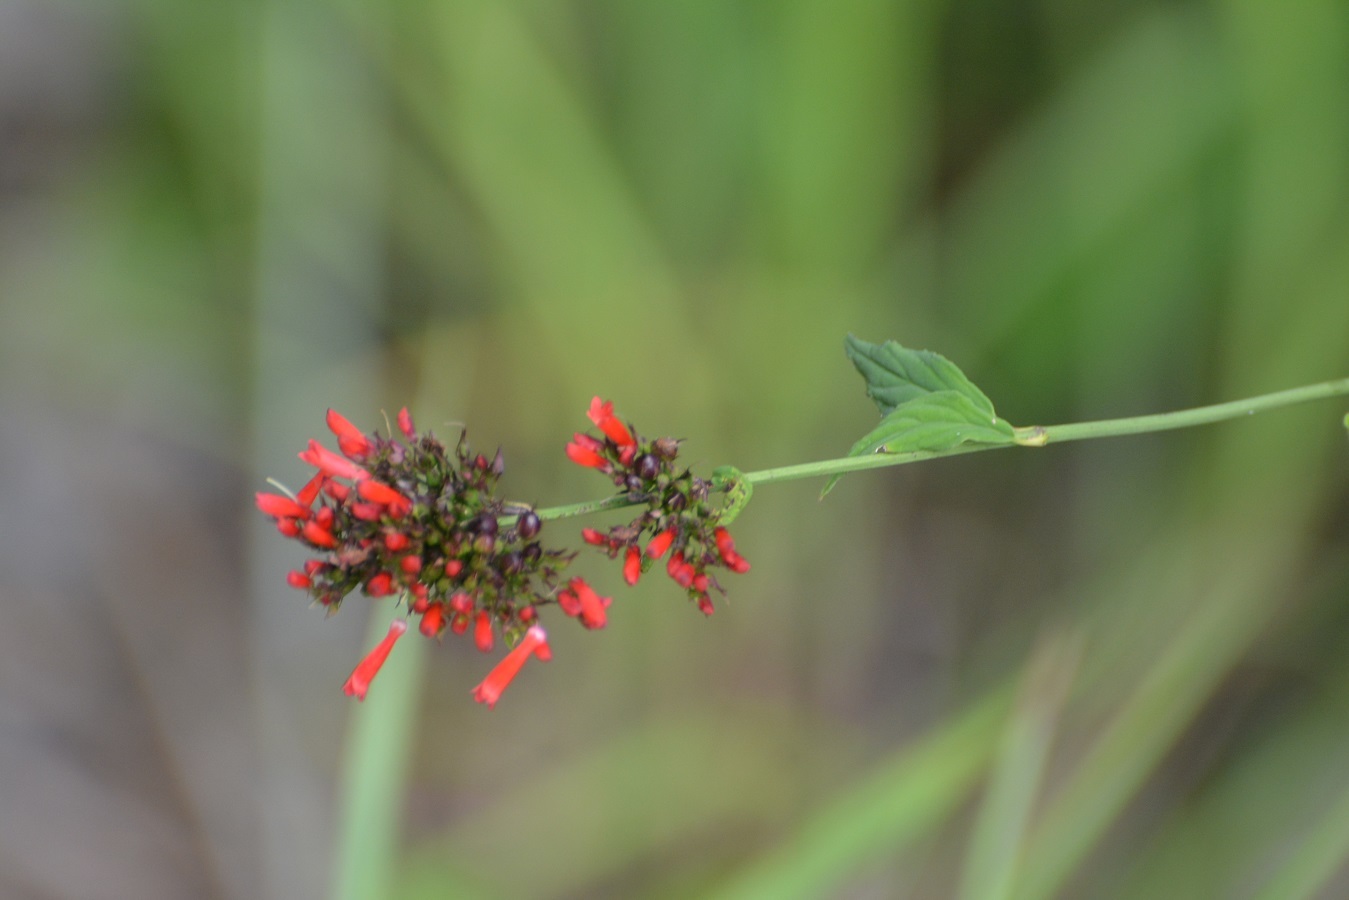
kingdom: Plantae
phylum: Tracheophyta
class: Magnoliopsida
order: Lamiales
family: Plantaginaceae
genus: Russelia
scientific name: Russelia verticillata
